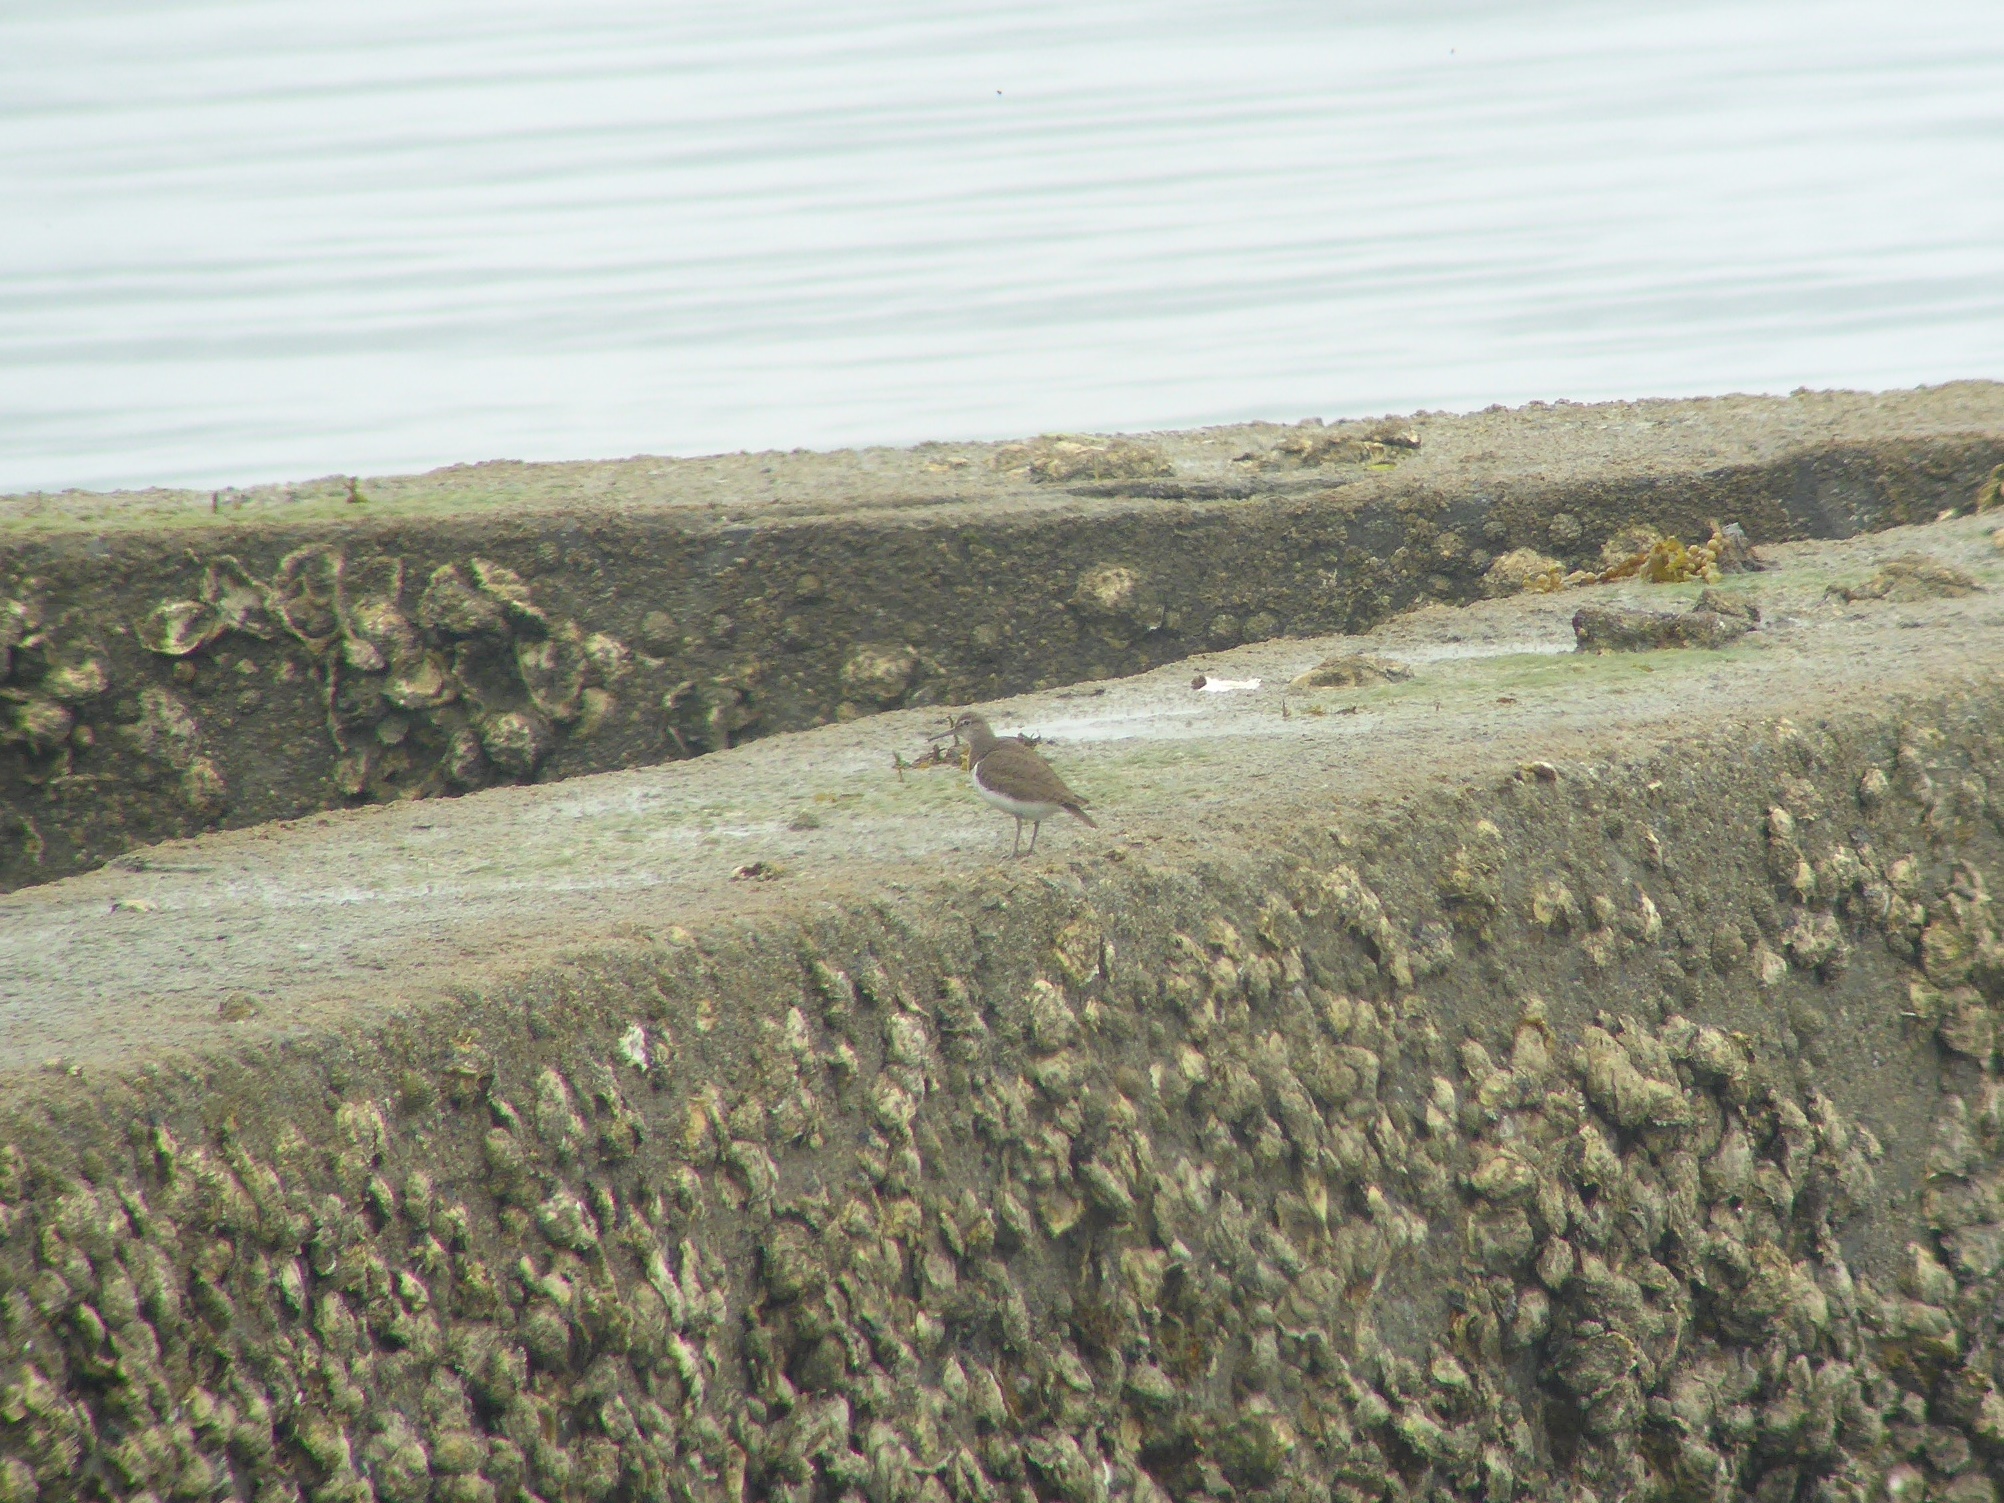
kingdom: Animalia
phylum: Chordata
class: Aves
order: Charadriiformes
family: Scolopacidae
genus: Actitis
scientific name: Actitis hypoleucos
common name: Common sandpiper
